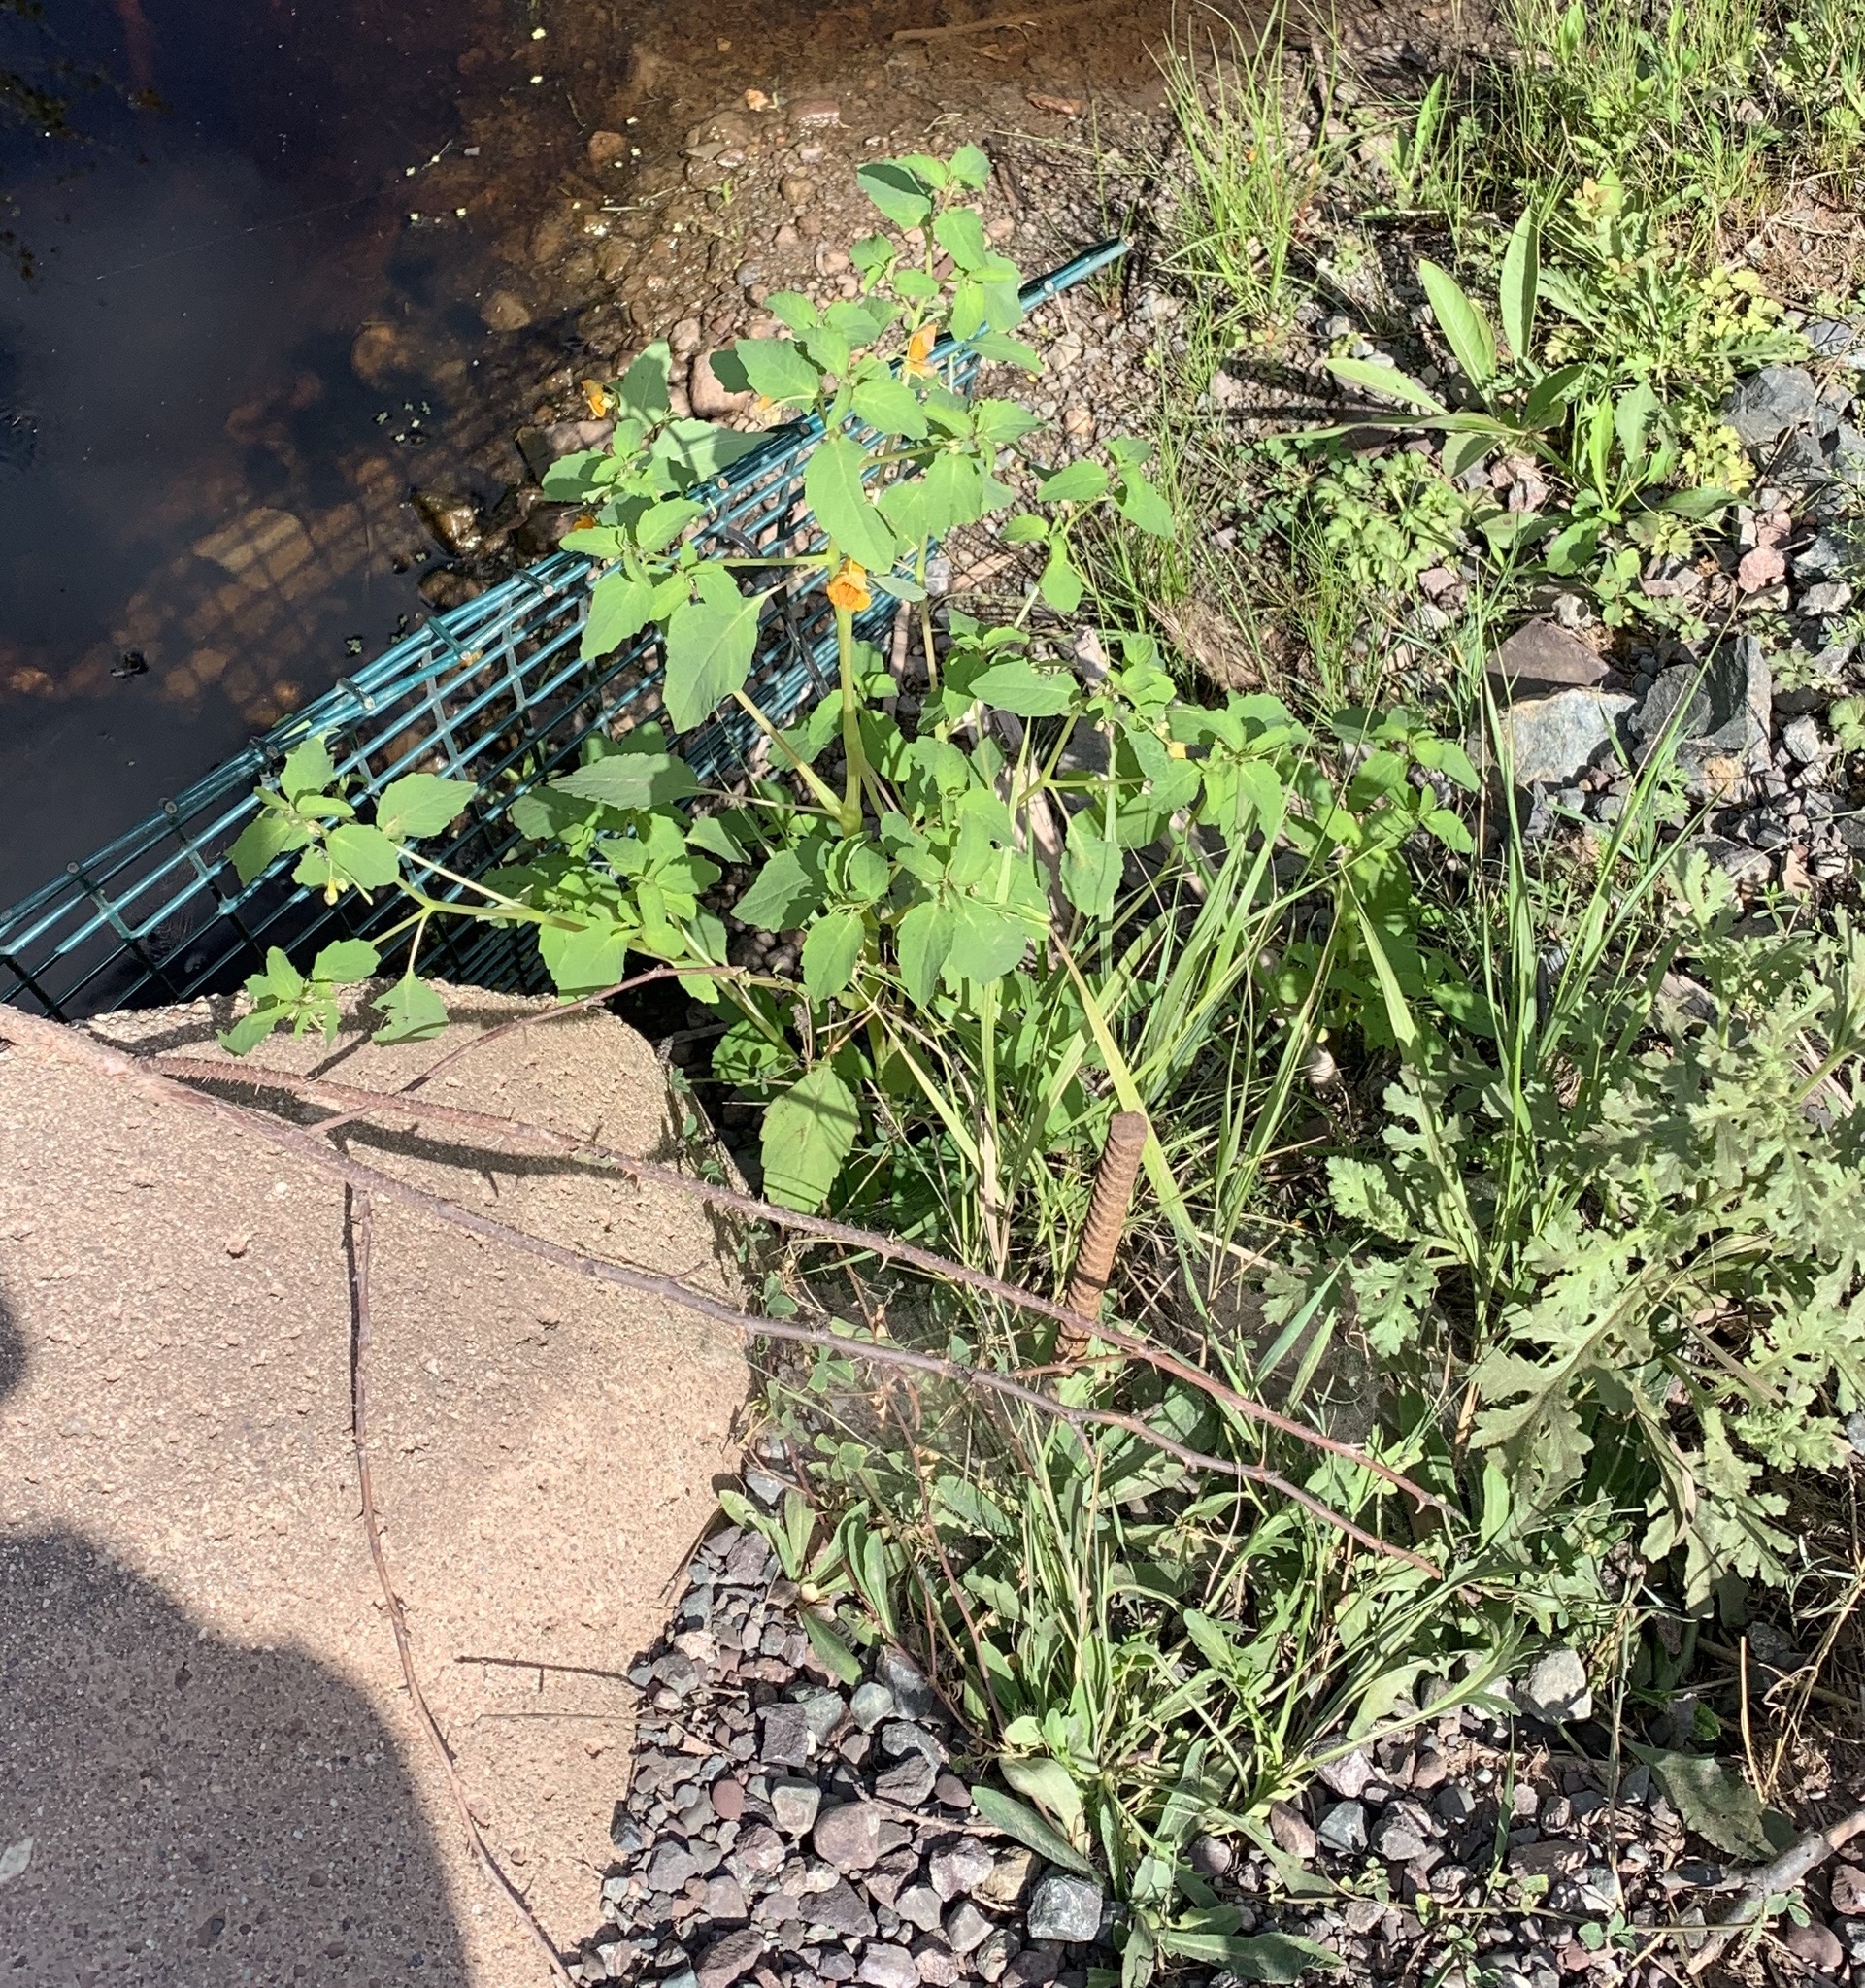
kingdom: Plantae
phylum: Tracheophyta
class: Magnoliopsida
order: Ericales
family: Balsaminaceae
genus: Impatiens
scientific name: Impatiens capensis
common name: Orange balsam
